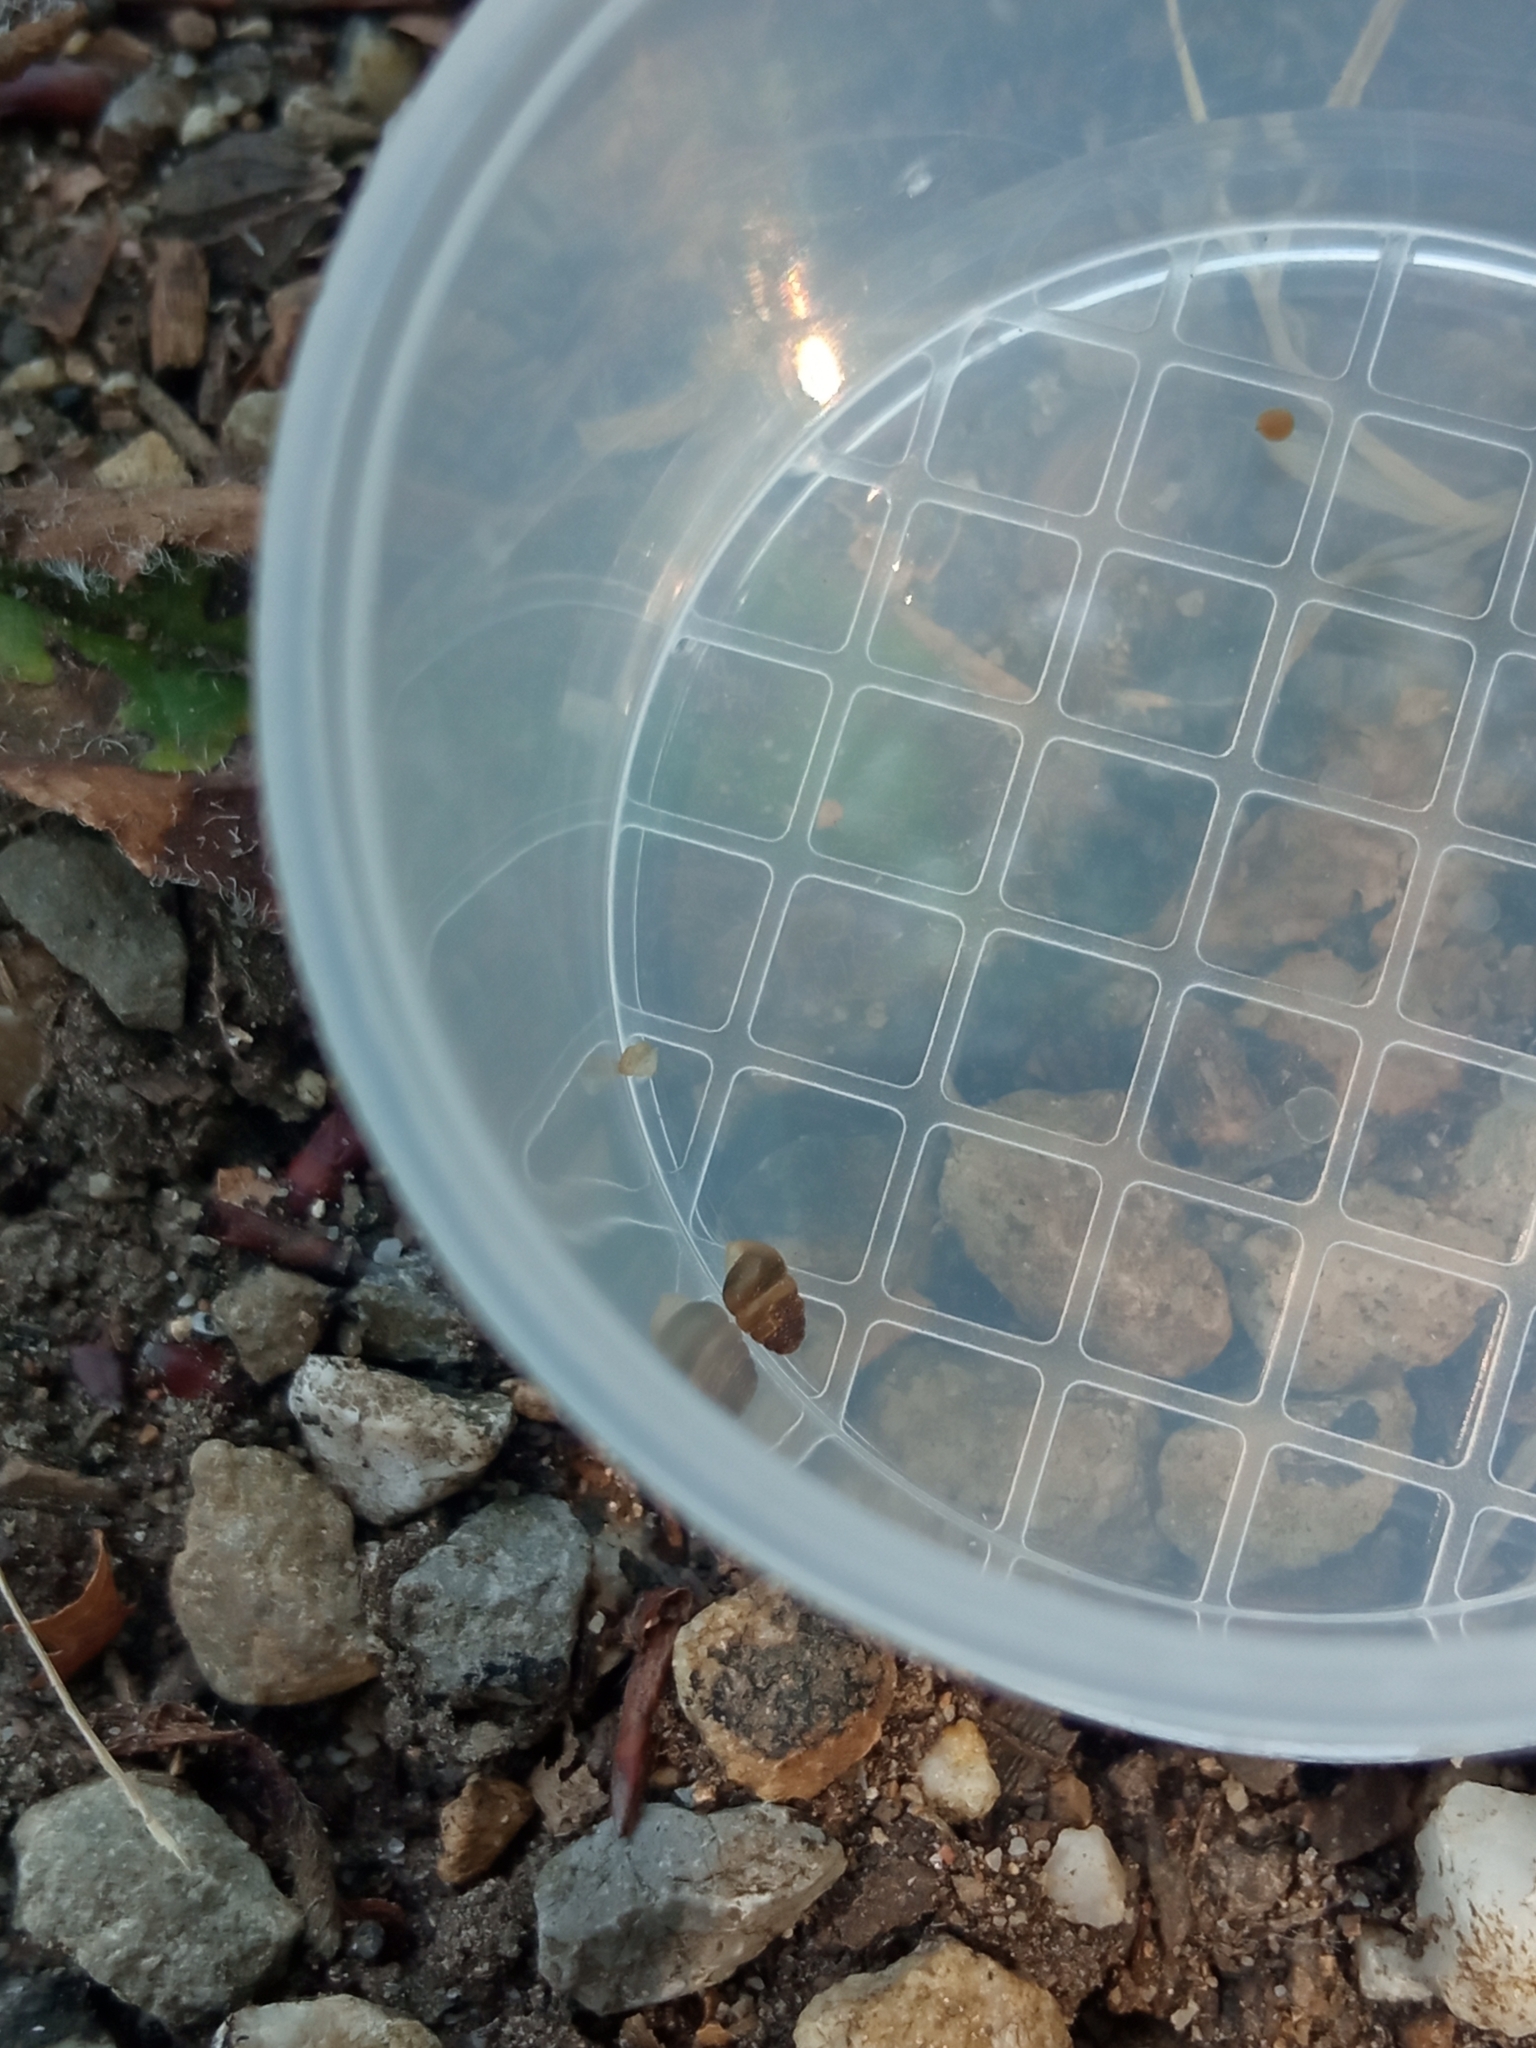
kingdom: Animalia
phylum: Mollusca
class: Gastropoda
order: Stylommatophora
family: Lauriidae
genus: Lauria
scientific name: Lauria cylindracea
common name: Common chrysalis snail
